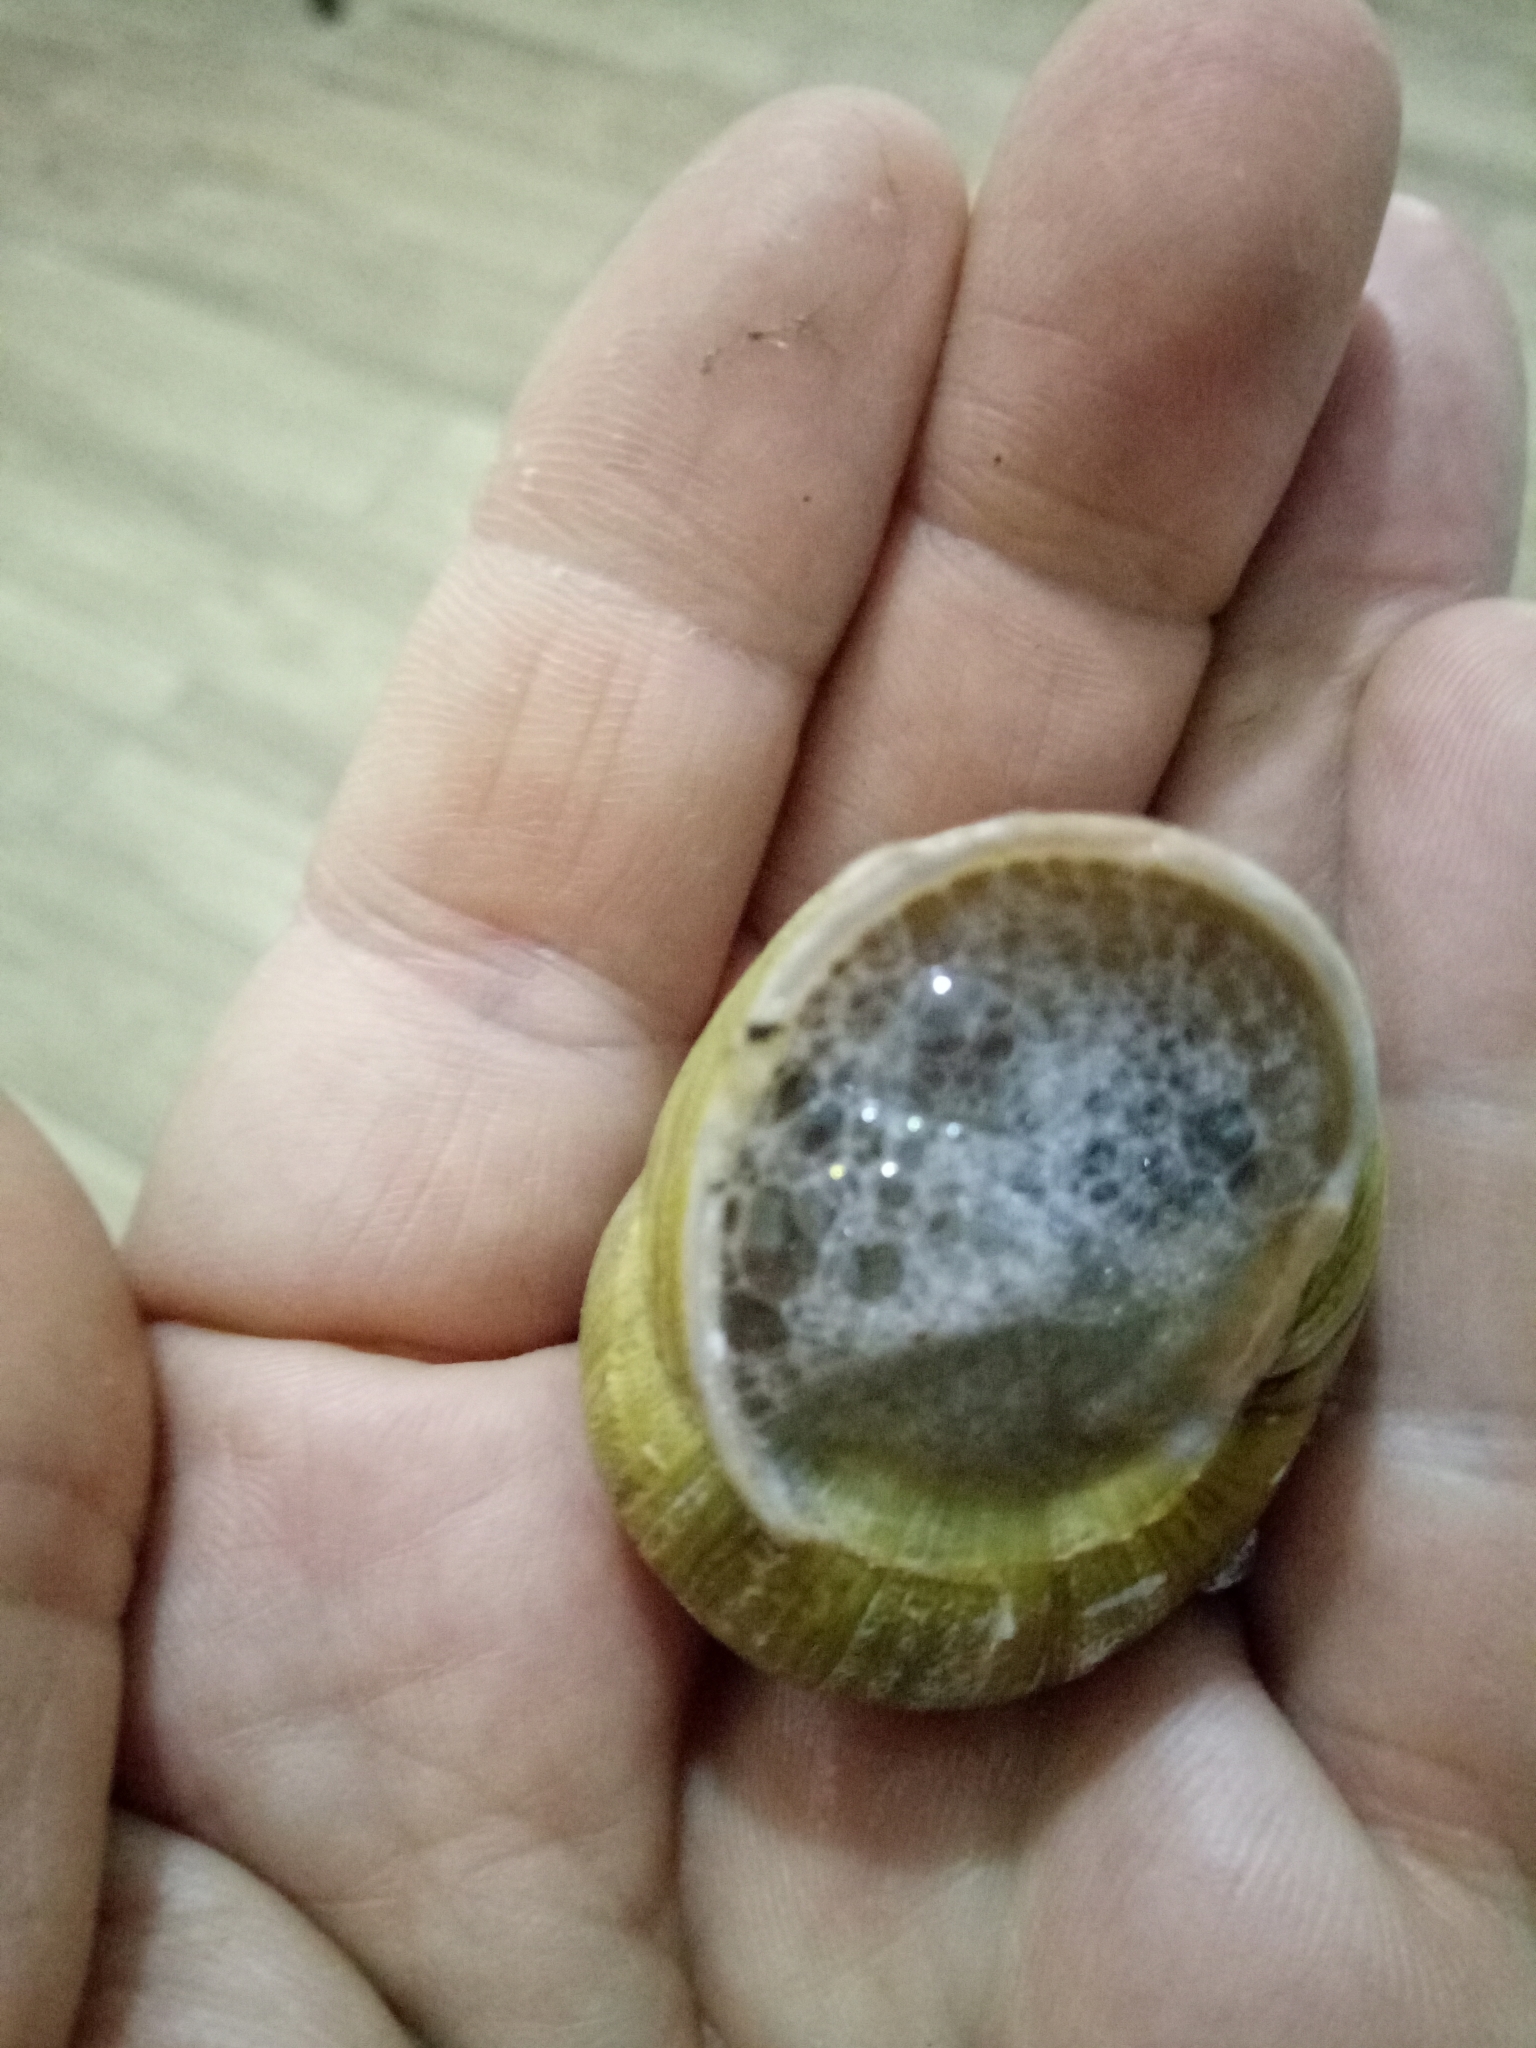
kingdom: Animalia
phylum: Mollusca
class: Gastropoda
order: Stylommatophora
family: Helicidae
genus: Cornu
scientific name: Cornu aspersum
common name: Brown garden snail
